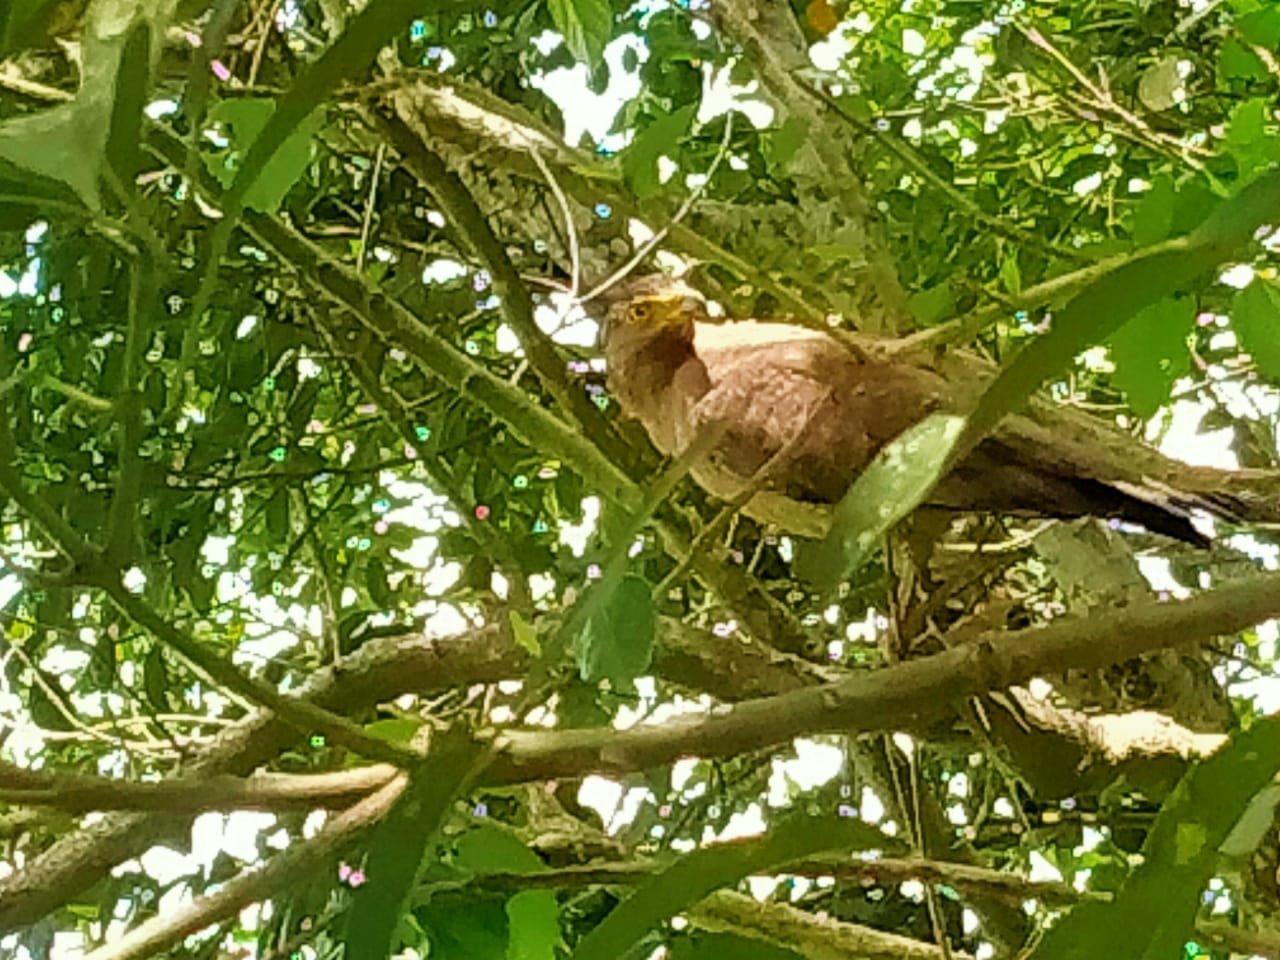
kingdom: Animalia
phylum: Chordata
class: Aves
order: Accipitriformes
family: Accipitridae
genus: Spilornis
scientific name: Spilornis cheela
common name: Crested serpent eagle
